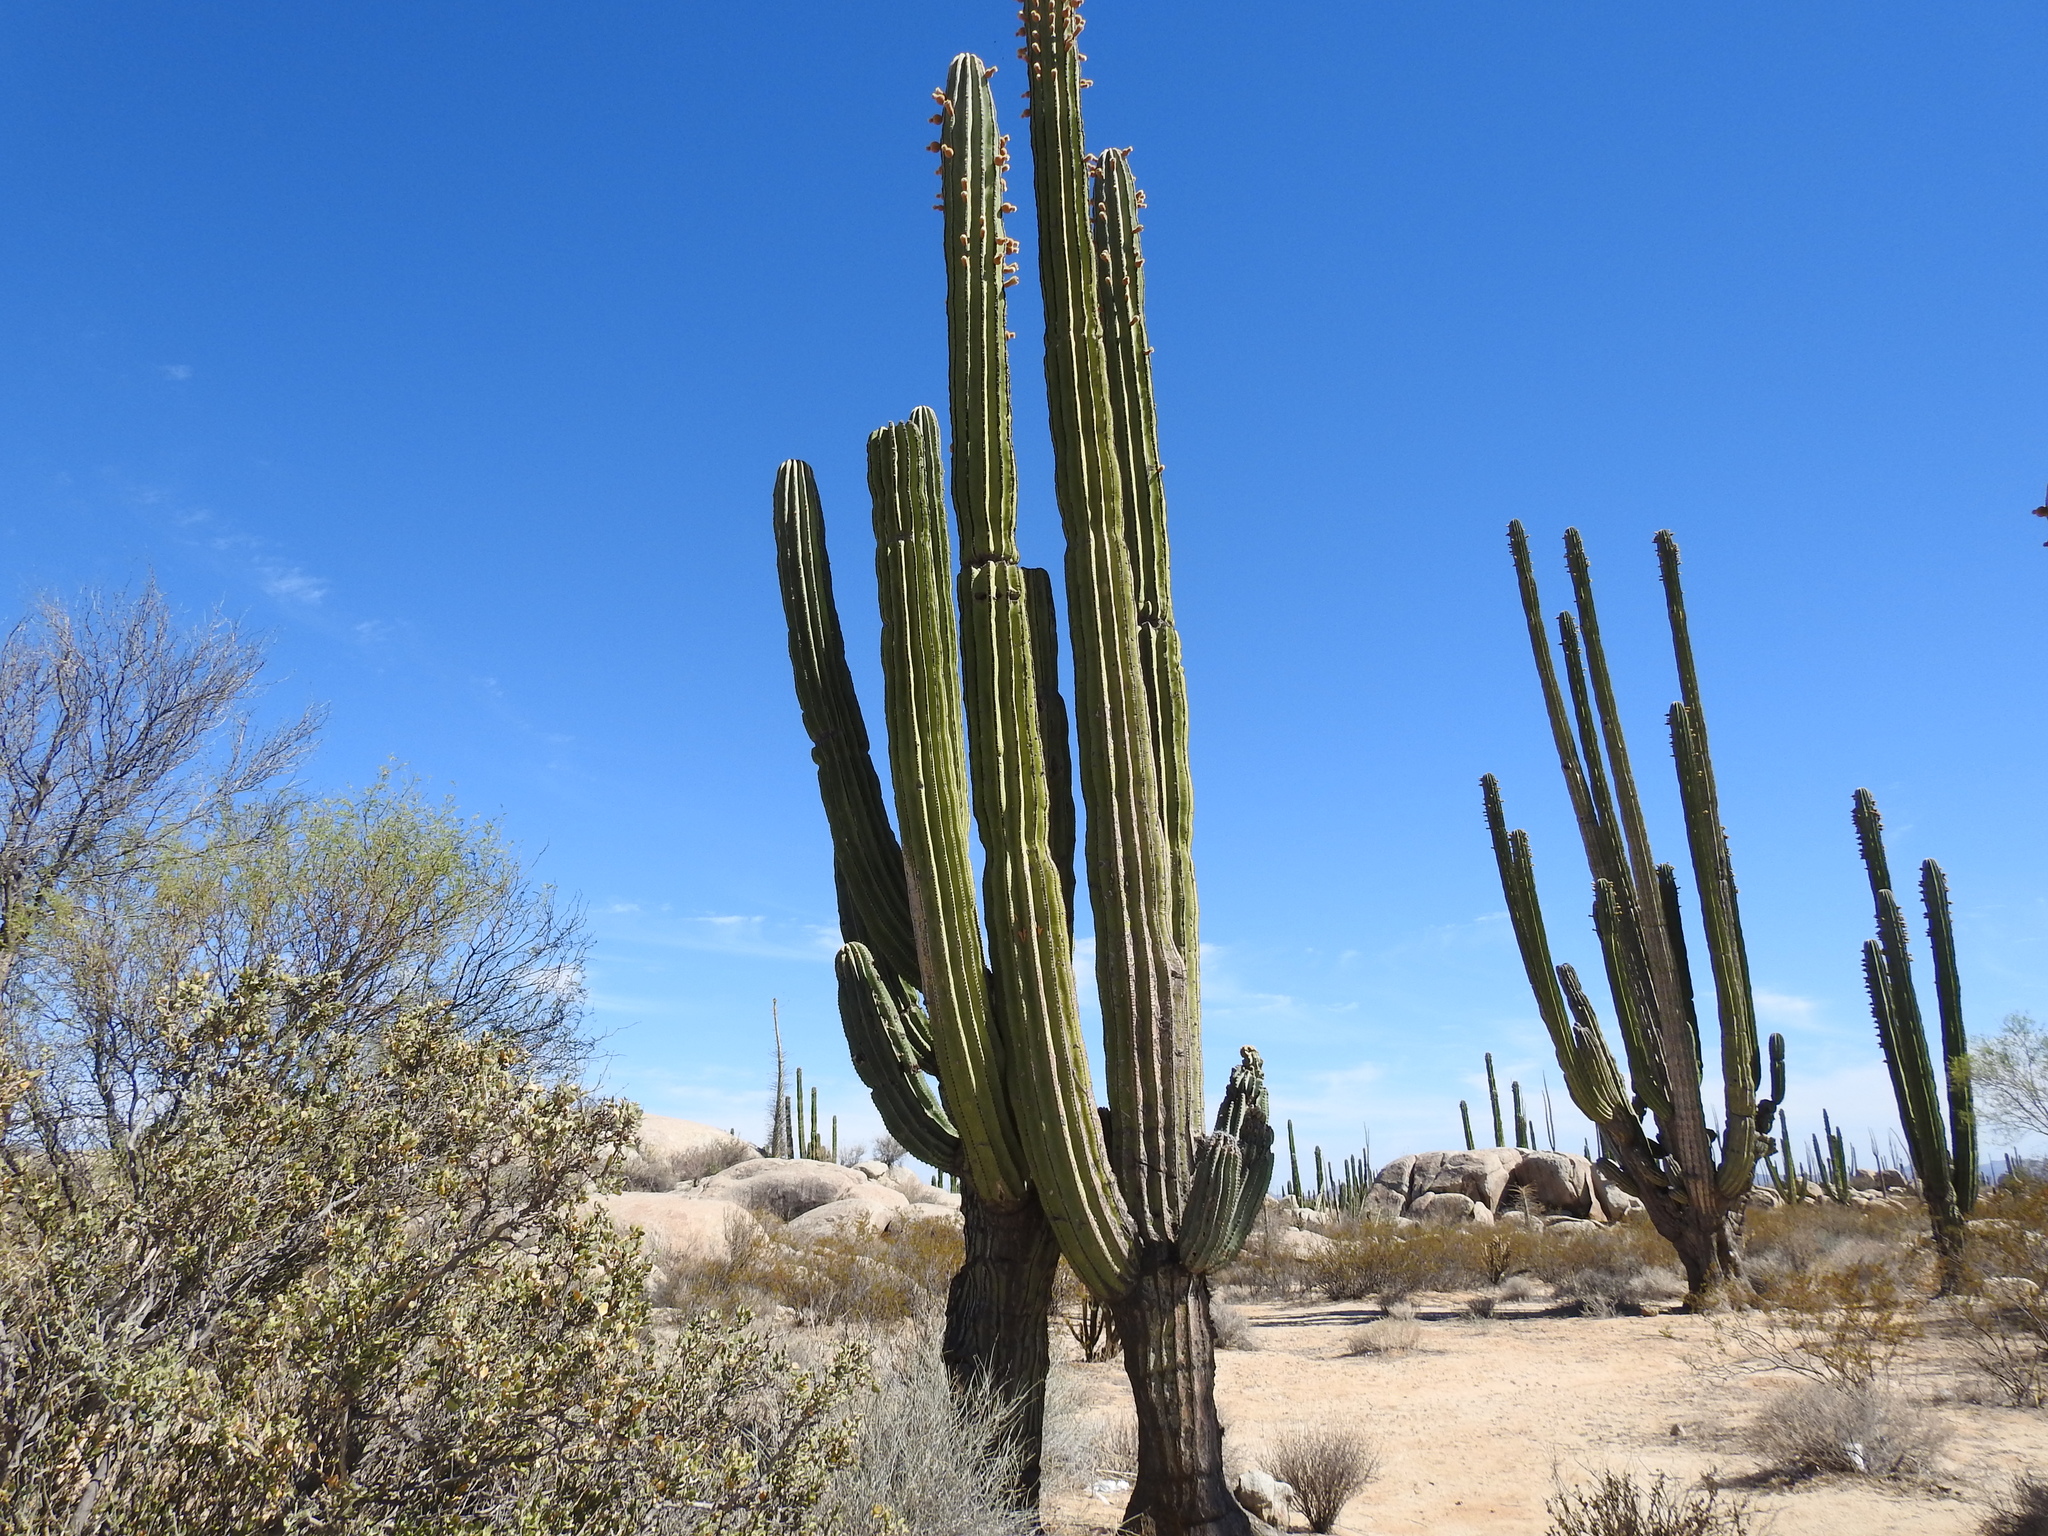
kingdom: Plantae
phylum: Tracheophyta
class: Magnoliopsida
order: Caryophyllales
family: Cactaceae
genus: Pachycereus
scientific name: Pachycereus pringlei
